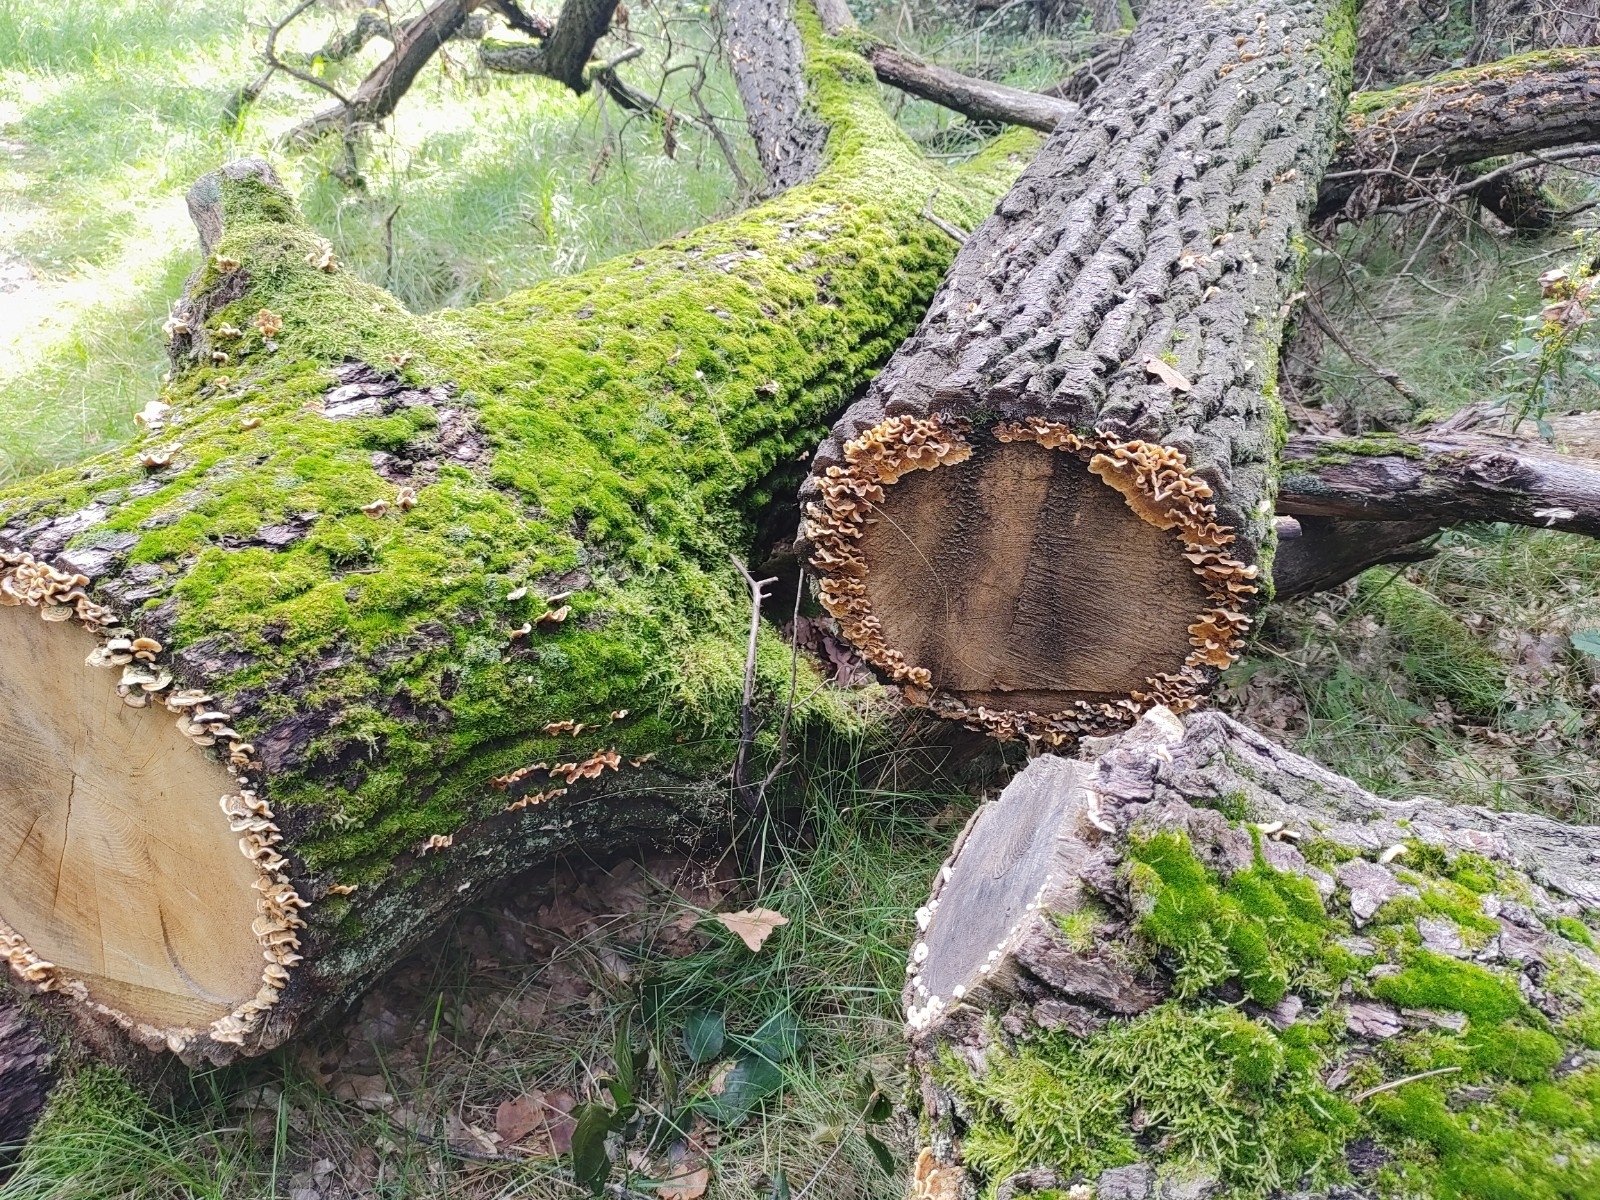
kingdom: Fungi
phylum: Basidiomycota
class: Agaricomycetes
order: Russulales
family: Stereaceae
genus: Stereum
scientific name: Stereum hirsutum
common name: Hairy curtain crust
